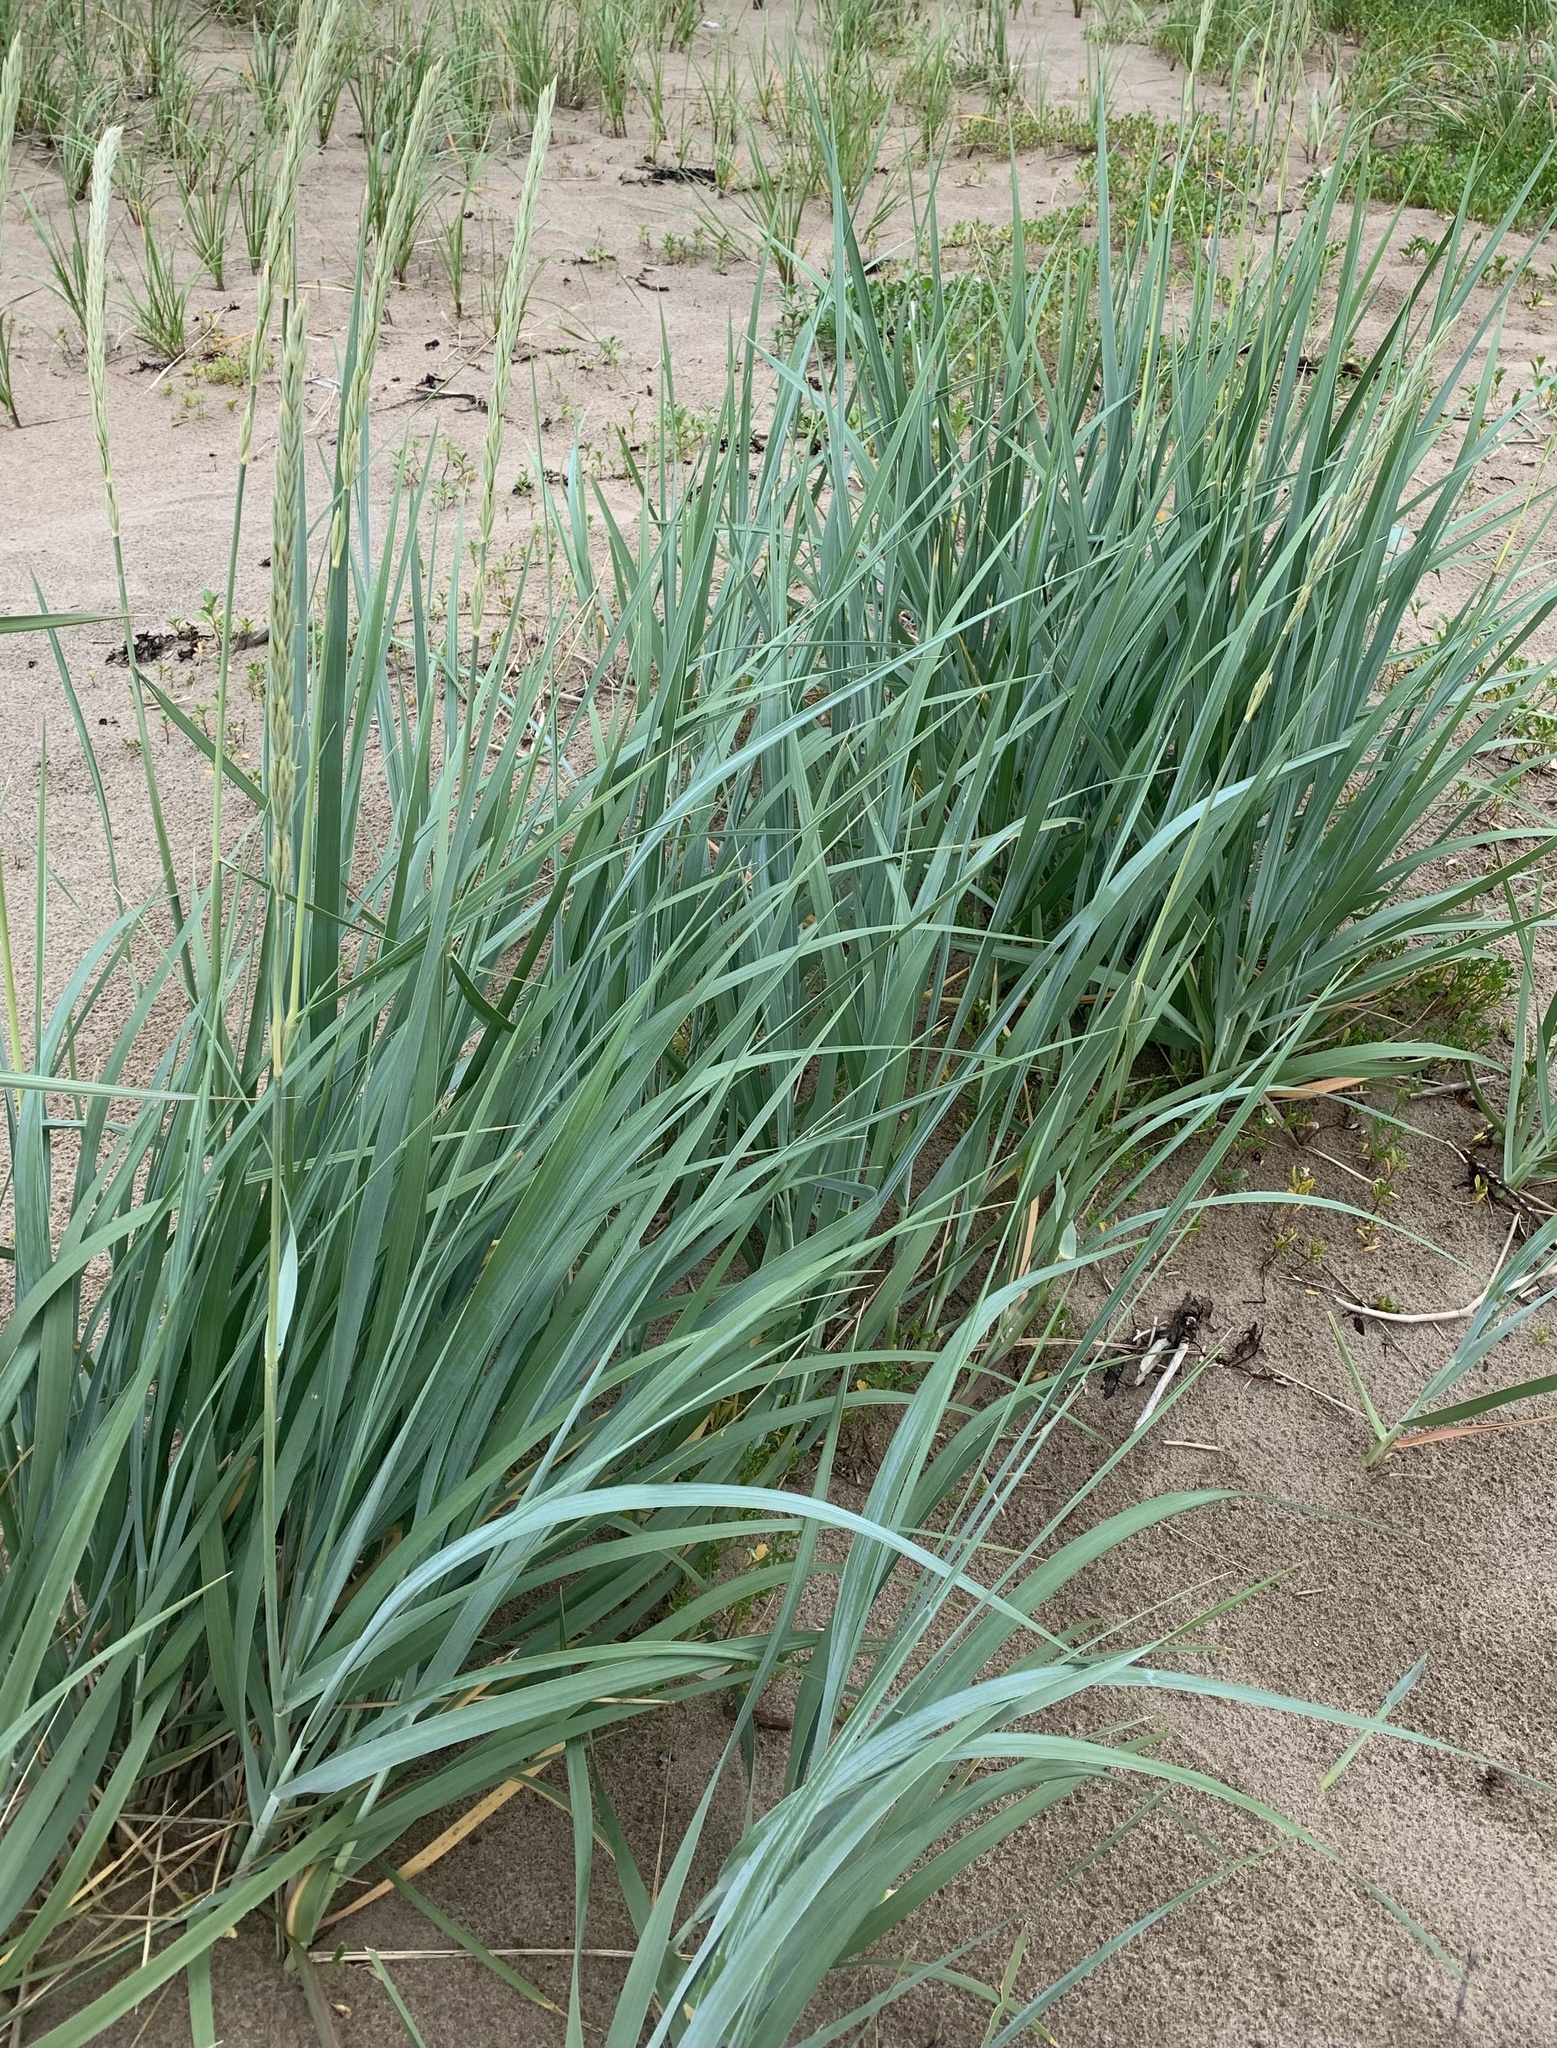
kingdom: Plantae
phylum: Tracheophyta
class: Liliopsida
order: Poales
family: Poaceae
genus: Leymus
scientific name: Leymus mollis
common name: American dune grass
